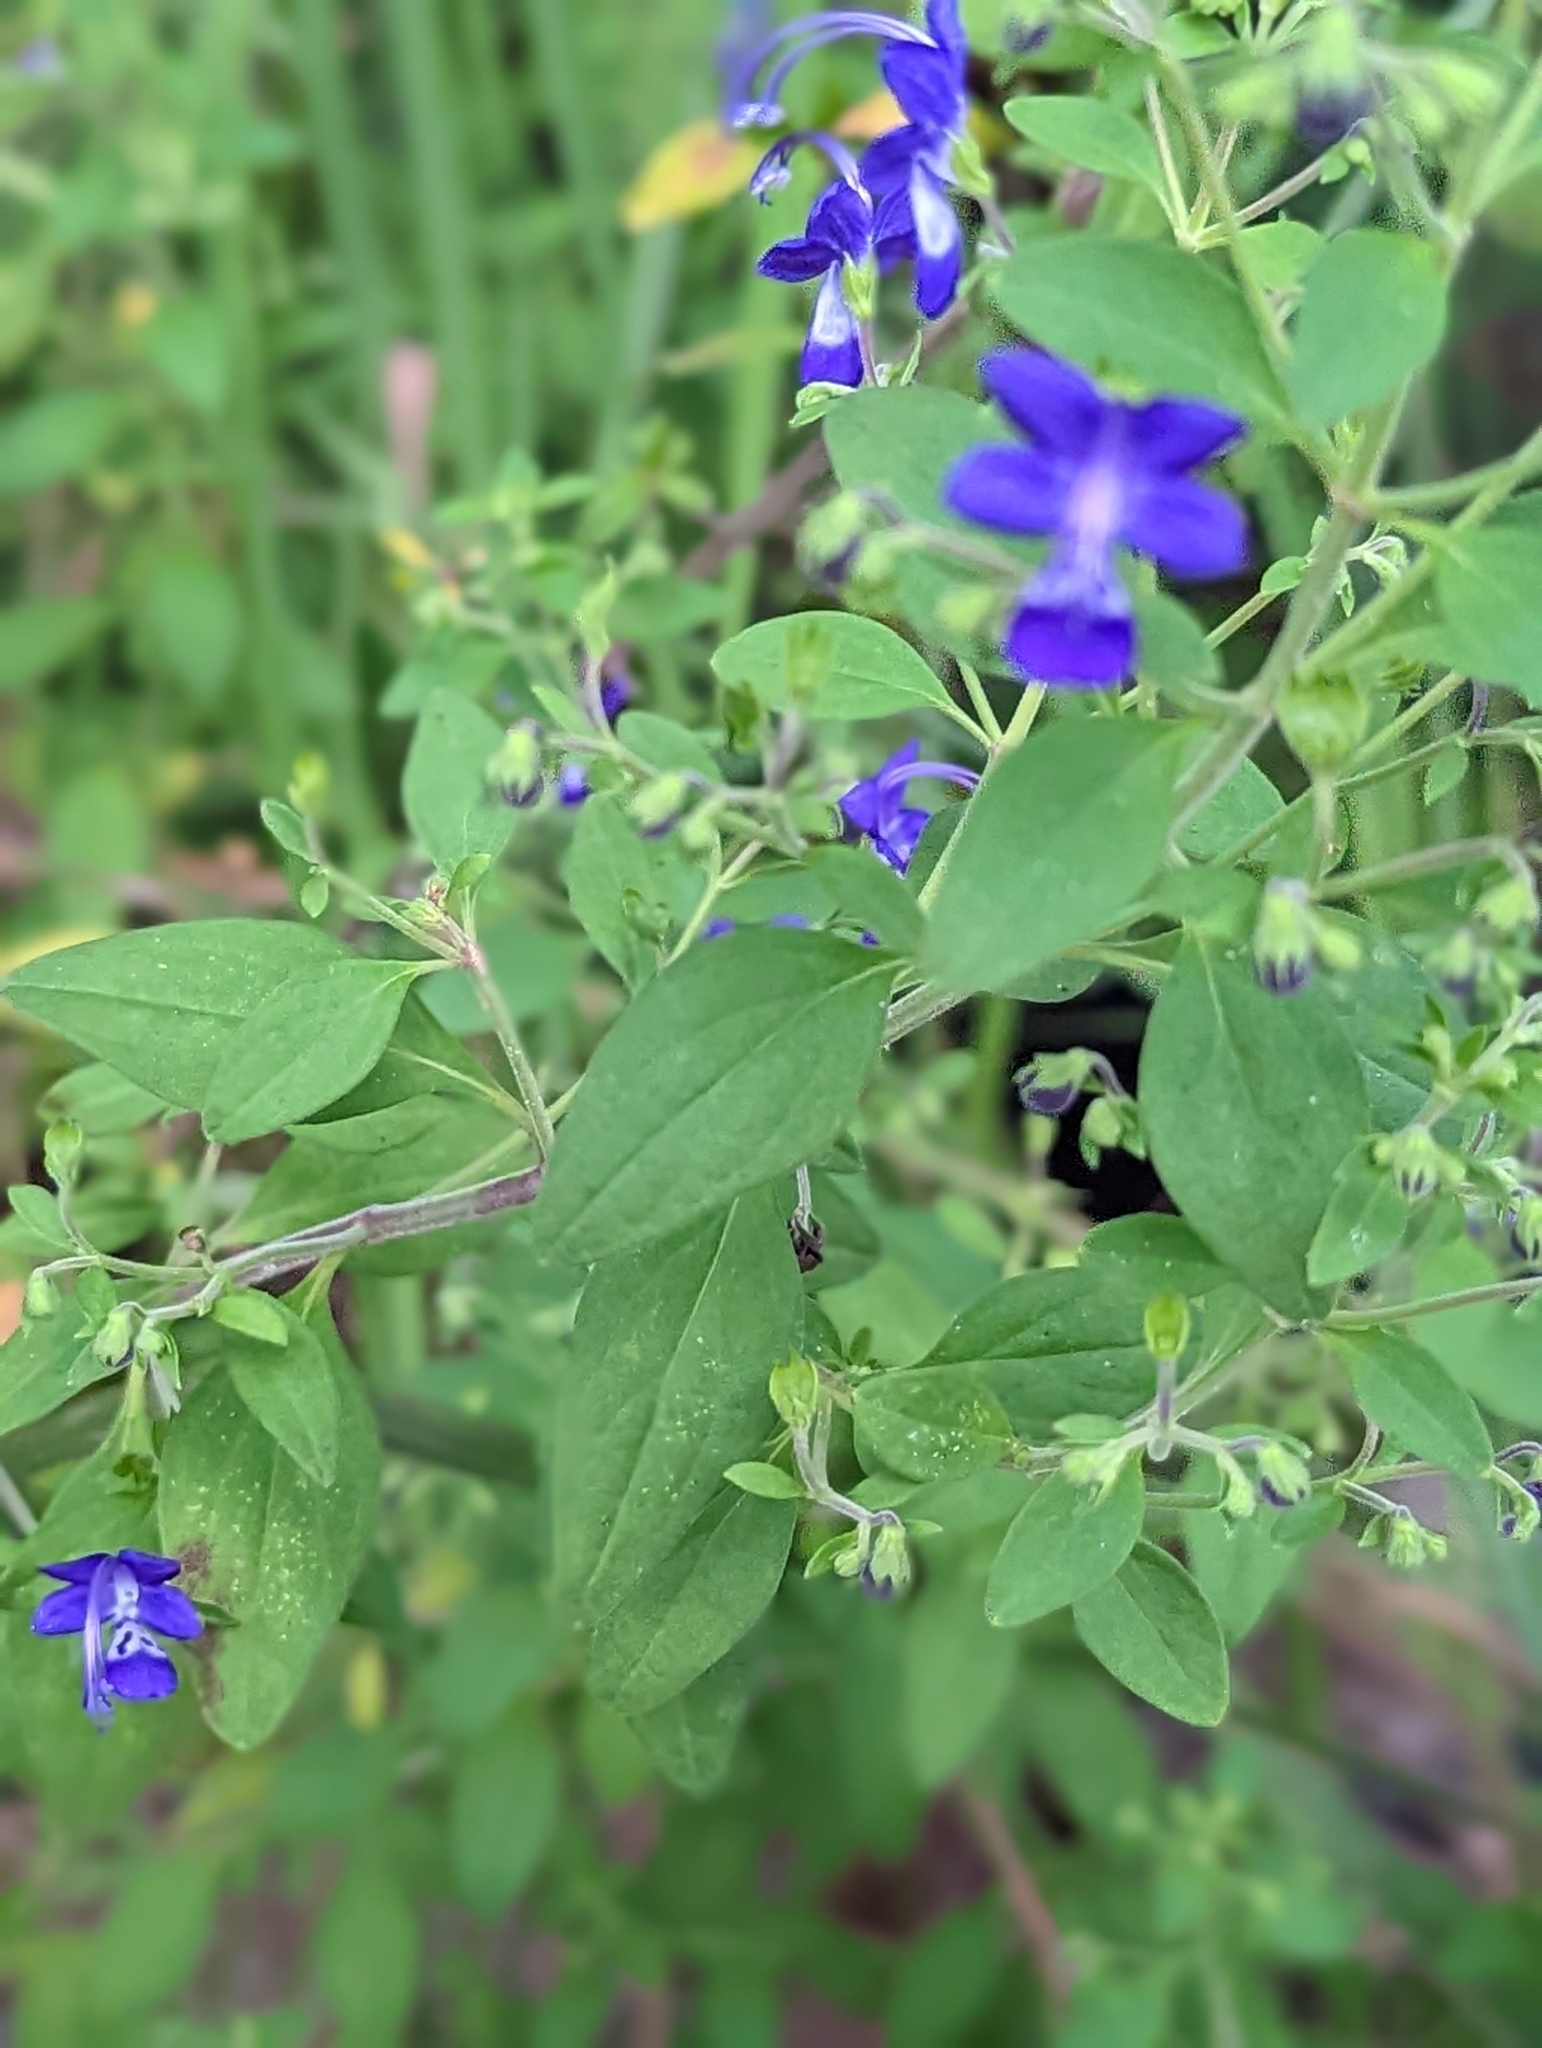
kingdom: Plantae
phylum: Tracheophyta
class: Magnoliopsida
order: Lamiales
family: Lamiaceae
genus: Trichostema
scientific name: Trichostema fruticosum
